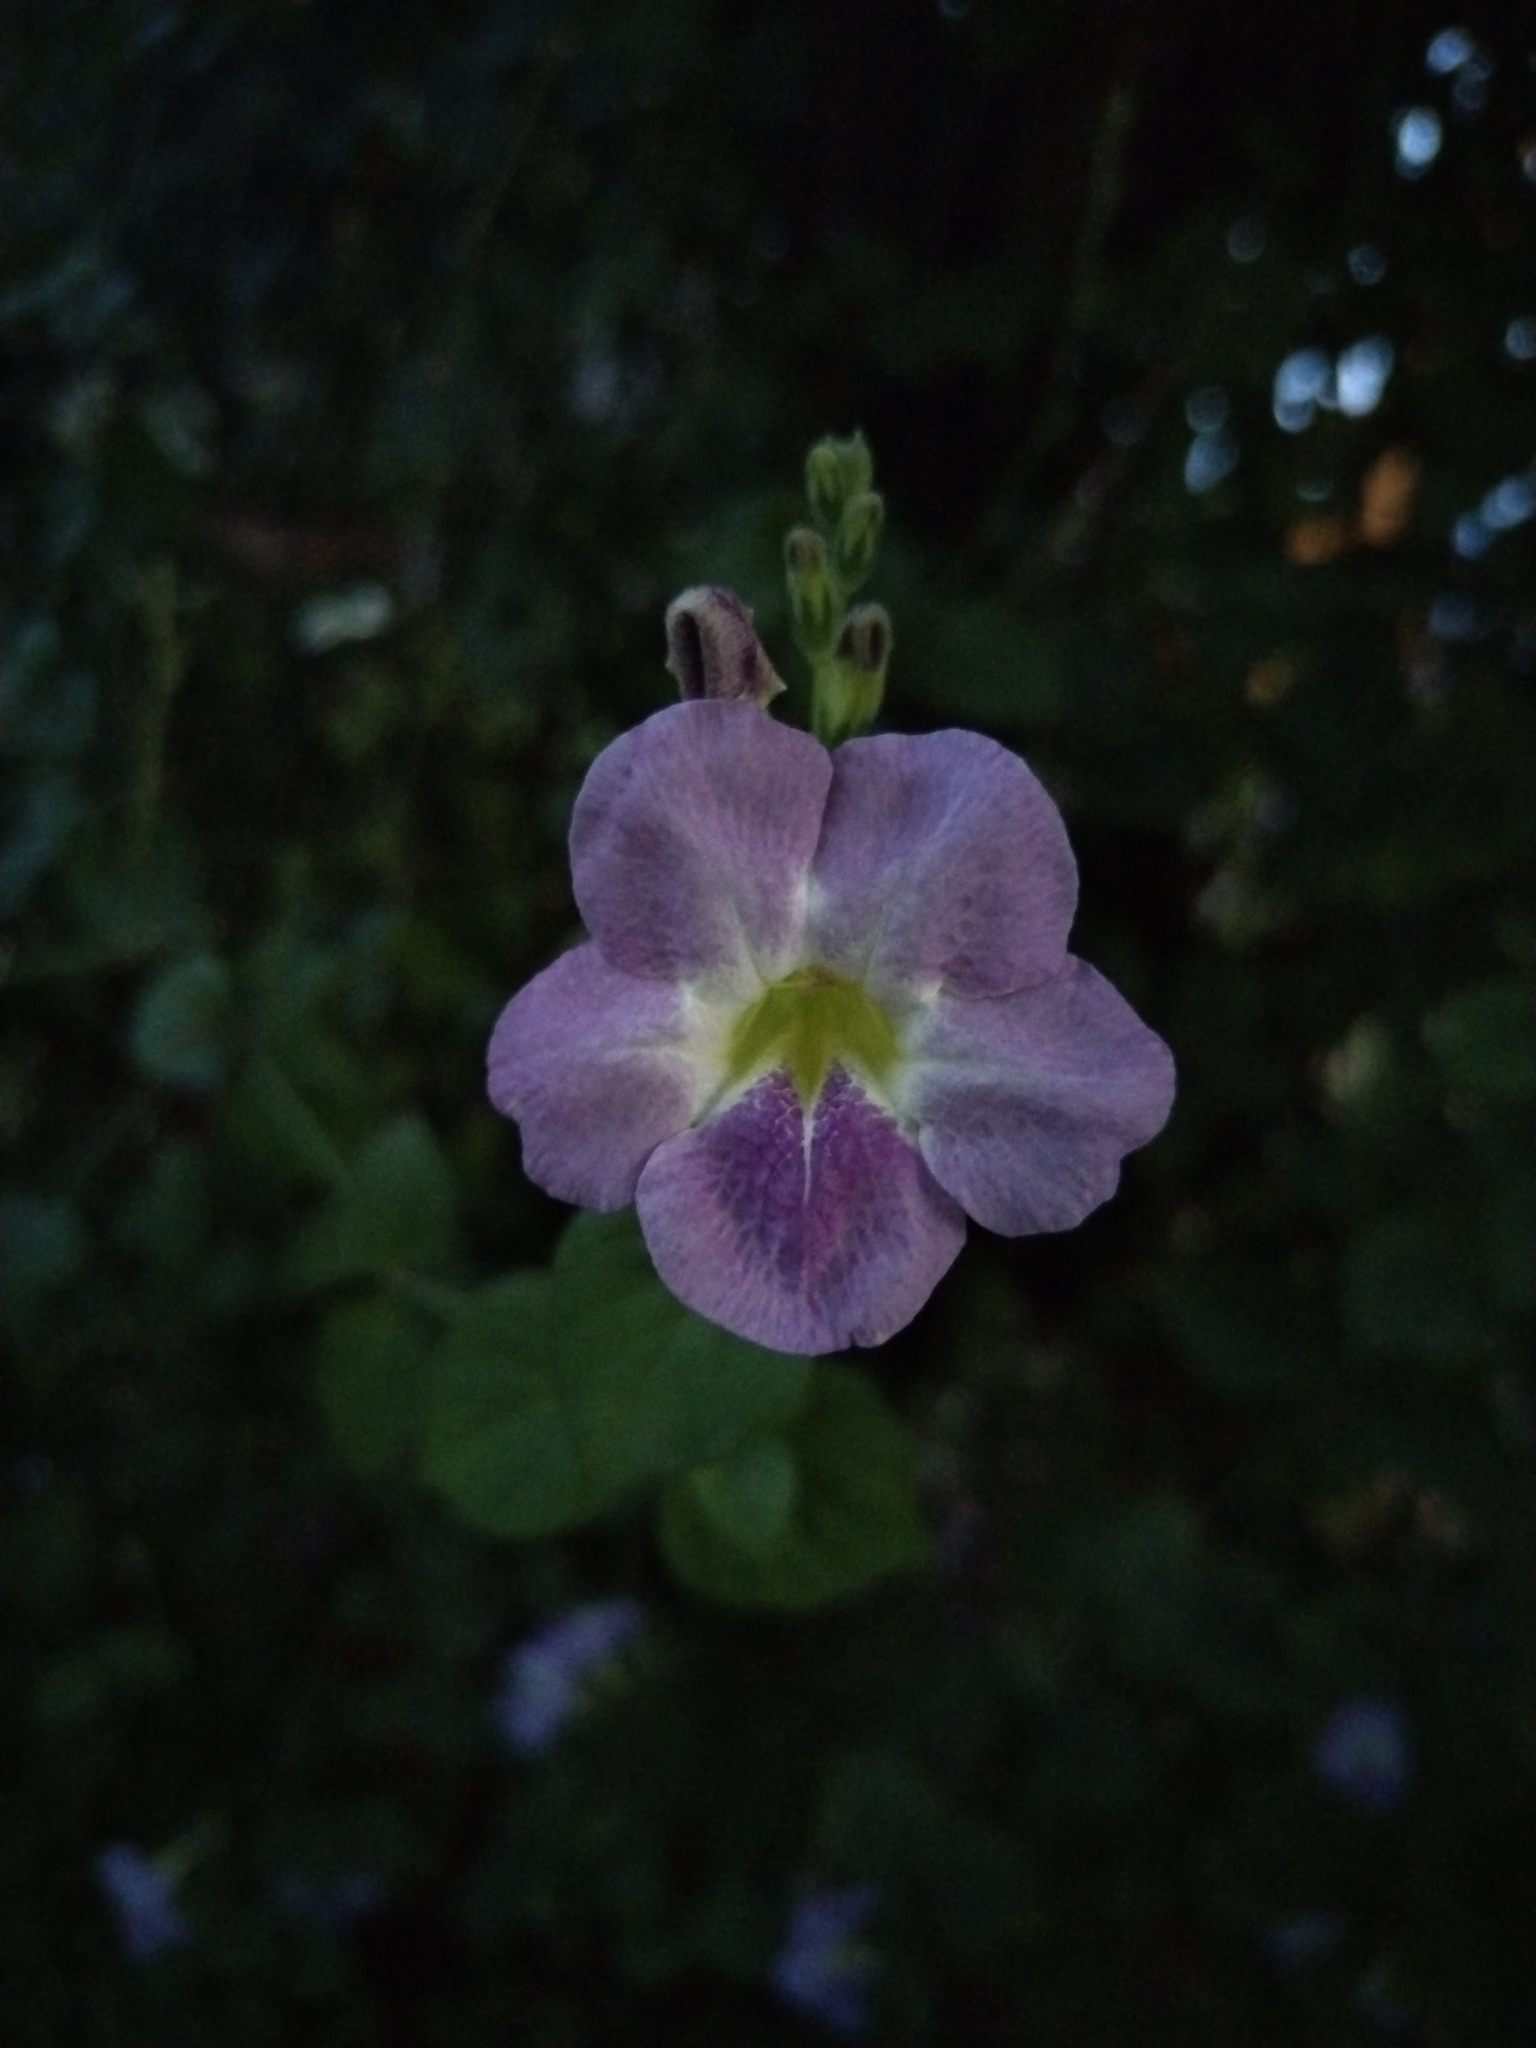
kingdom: Plantae
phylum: Tracheophyta
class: Magnoliopsida
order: Lamiales
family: Acanthaceae
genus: Asystasia
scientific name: Asystasia gangetica
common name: Chinese violet
